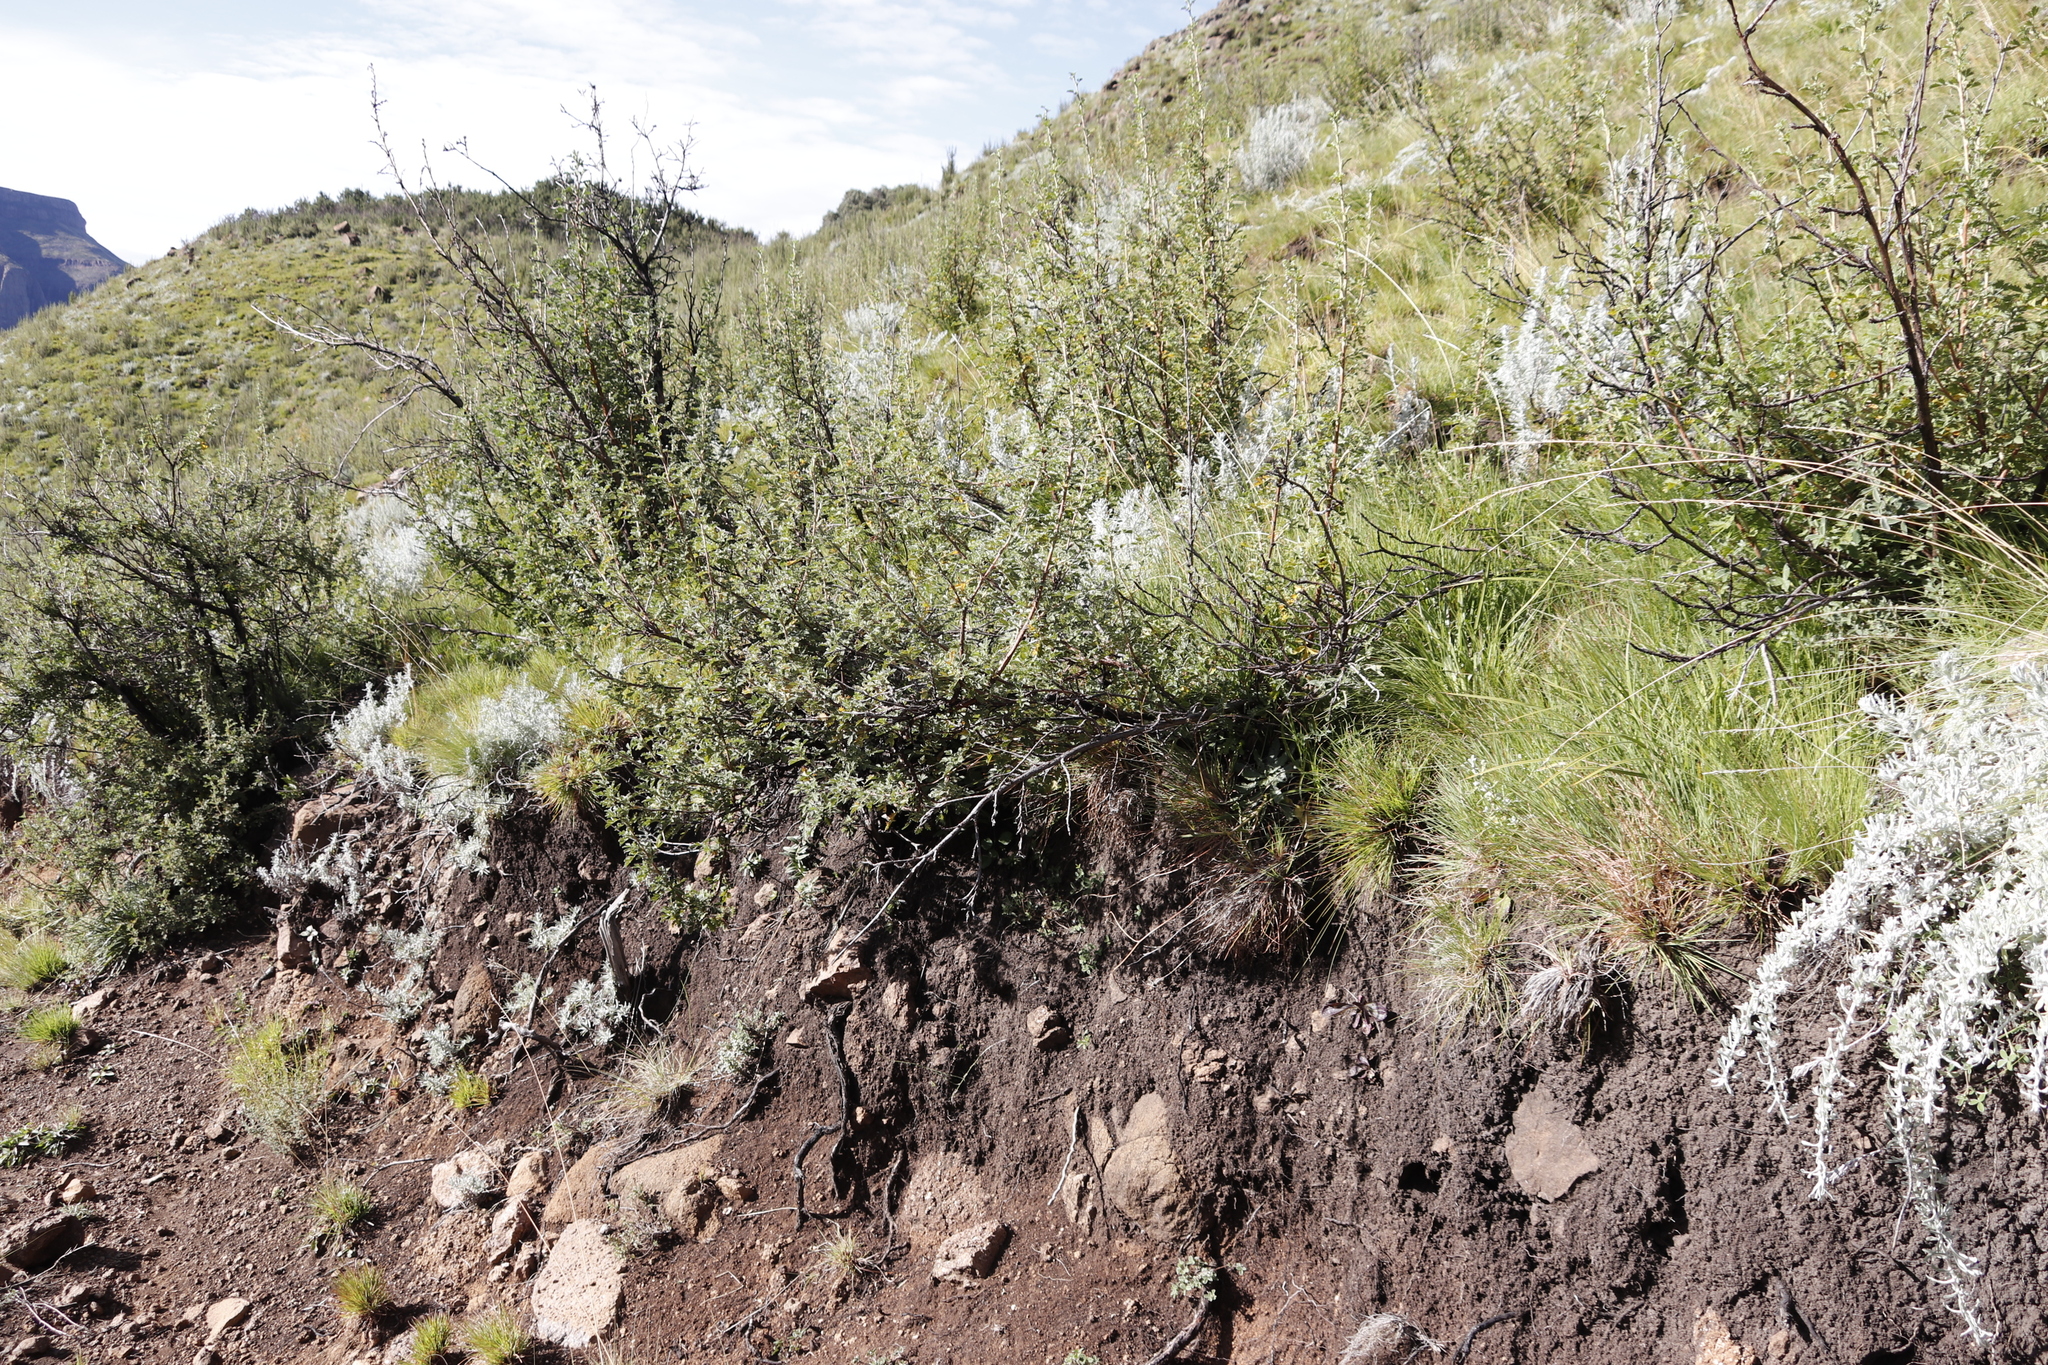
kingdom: Plantae
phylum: Tracheophyta
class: Magnoliopsida
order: Rosales
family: Rosaceae
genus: Leucosidea
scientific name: Leucosidea sericea
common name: Oldwood
